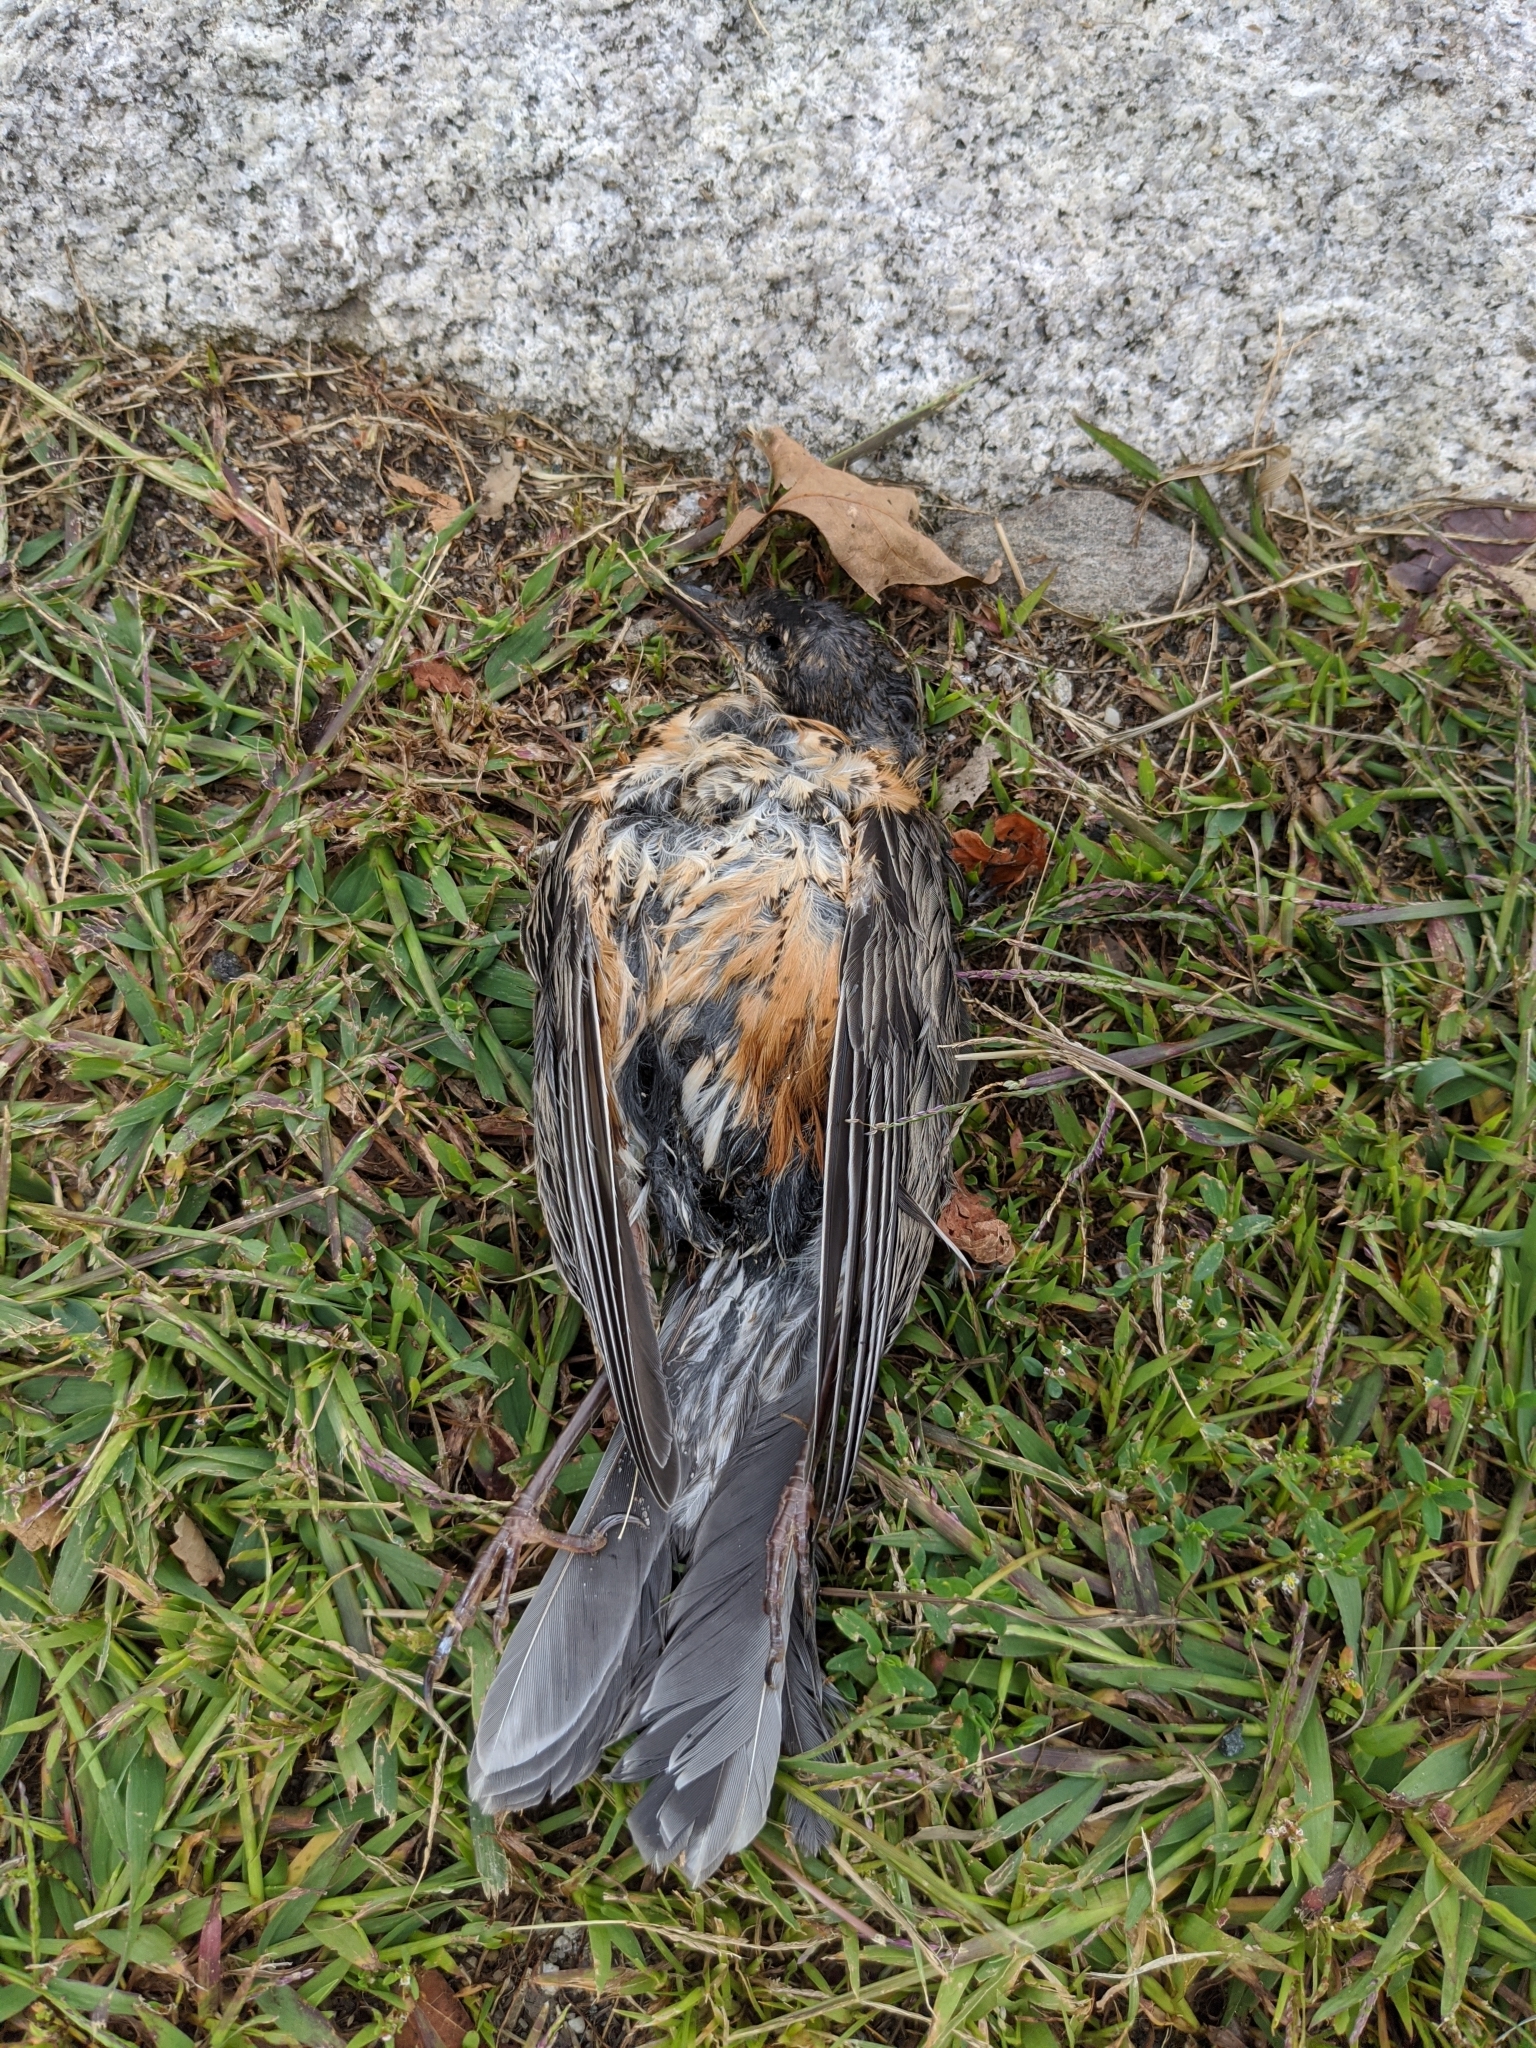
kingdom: Animalia
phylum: Chordata
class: Aves
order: Passeriformes
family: Turdidae
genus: Turdus
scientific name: Turdus migratorius
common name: American robin
